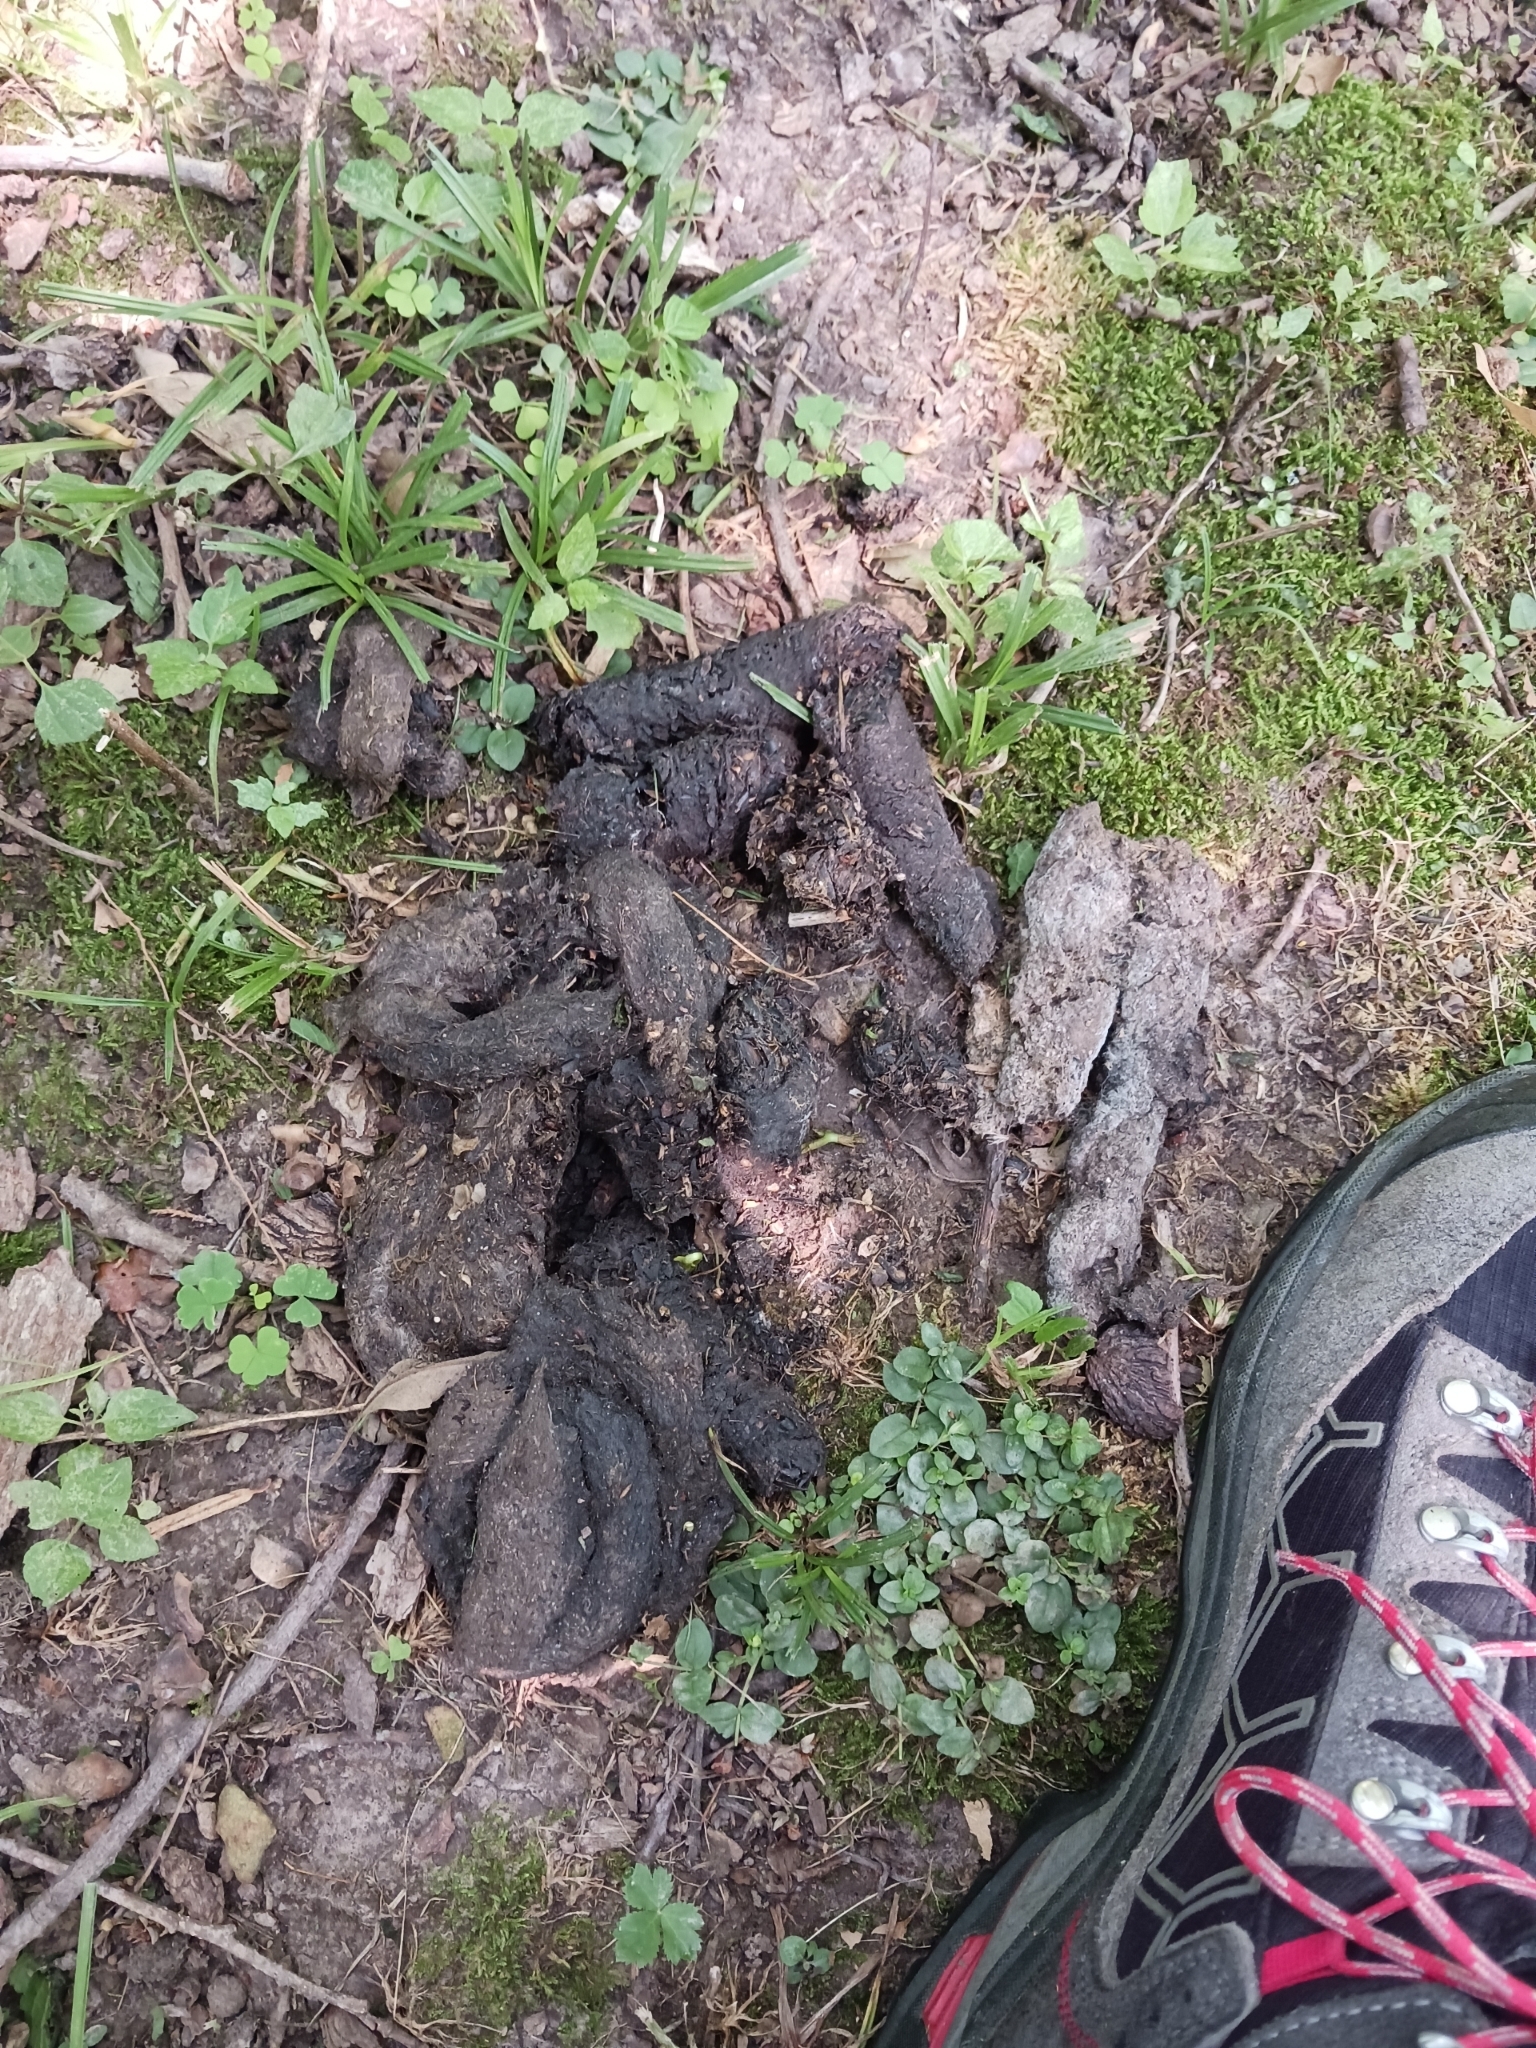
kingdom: Animalia
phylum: Chordata
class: Mammalia
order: Carnivora
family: Ursidae
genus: Ursus
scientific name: Ursus americanus
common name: American black bear
